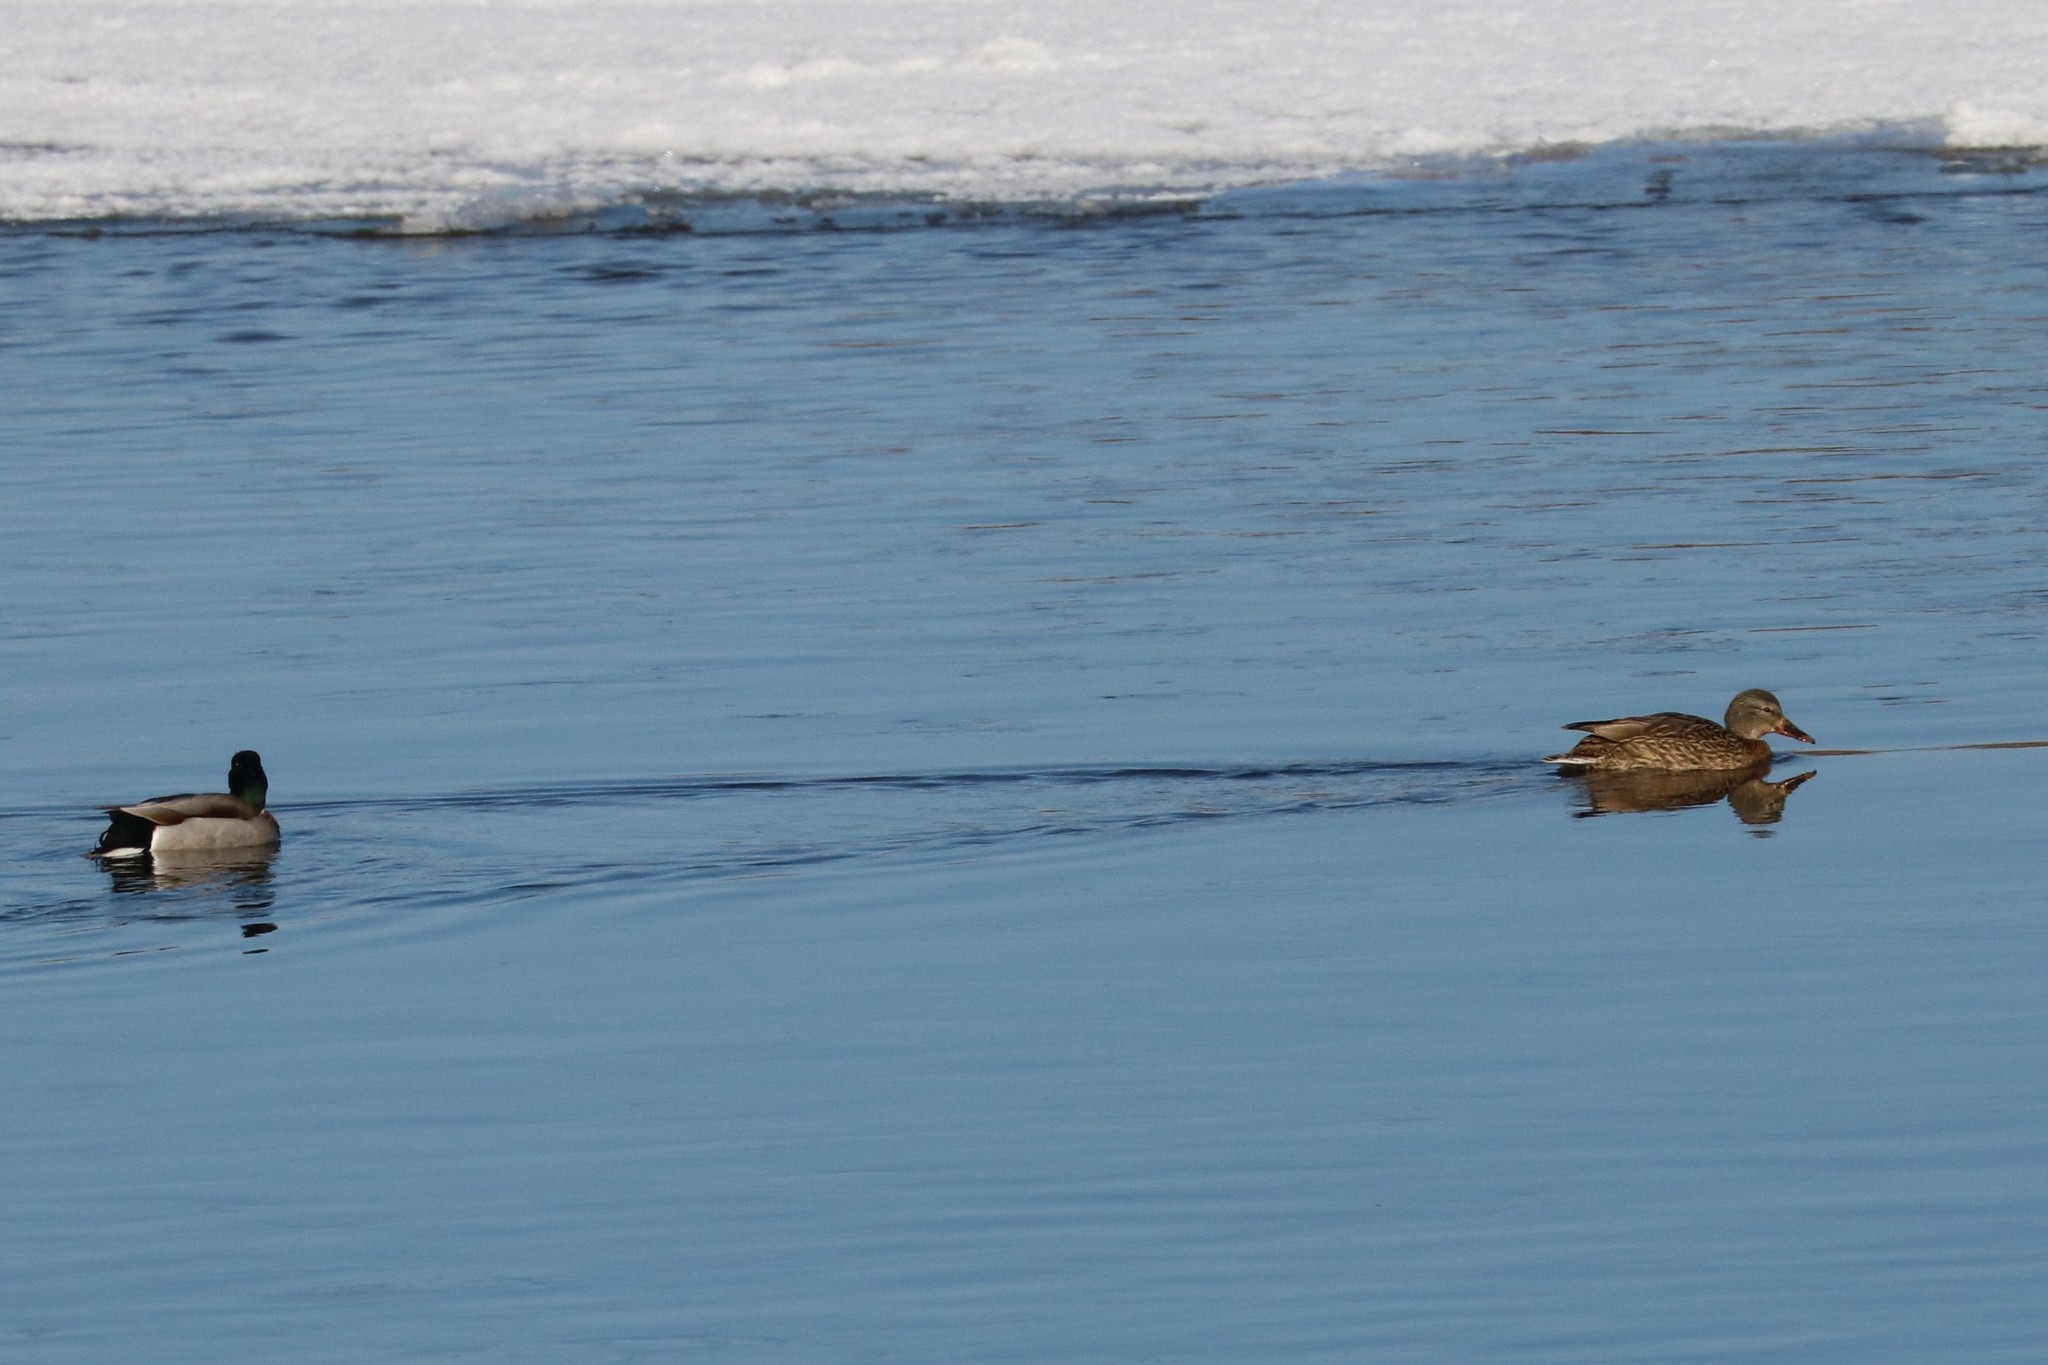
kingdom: Animalia
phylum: Chordata
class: Aves
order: Anseriformes
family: Anatidae
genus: Anas
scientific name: Anas platyrhynchos
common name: Mallard
